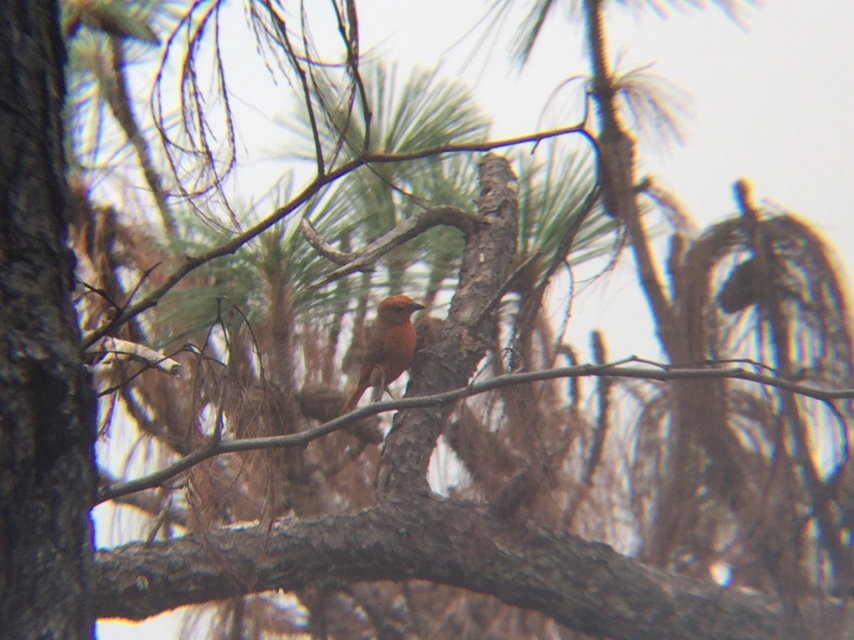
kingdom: Animalia
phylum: Chordata
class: Aves
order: Passeriformes
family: Cardinalidae
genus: Piranga
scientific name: Piranga flava
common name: Red tanager
